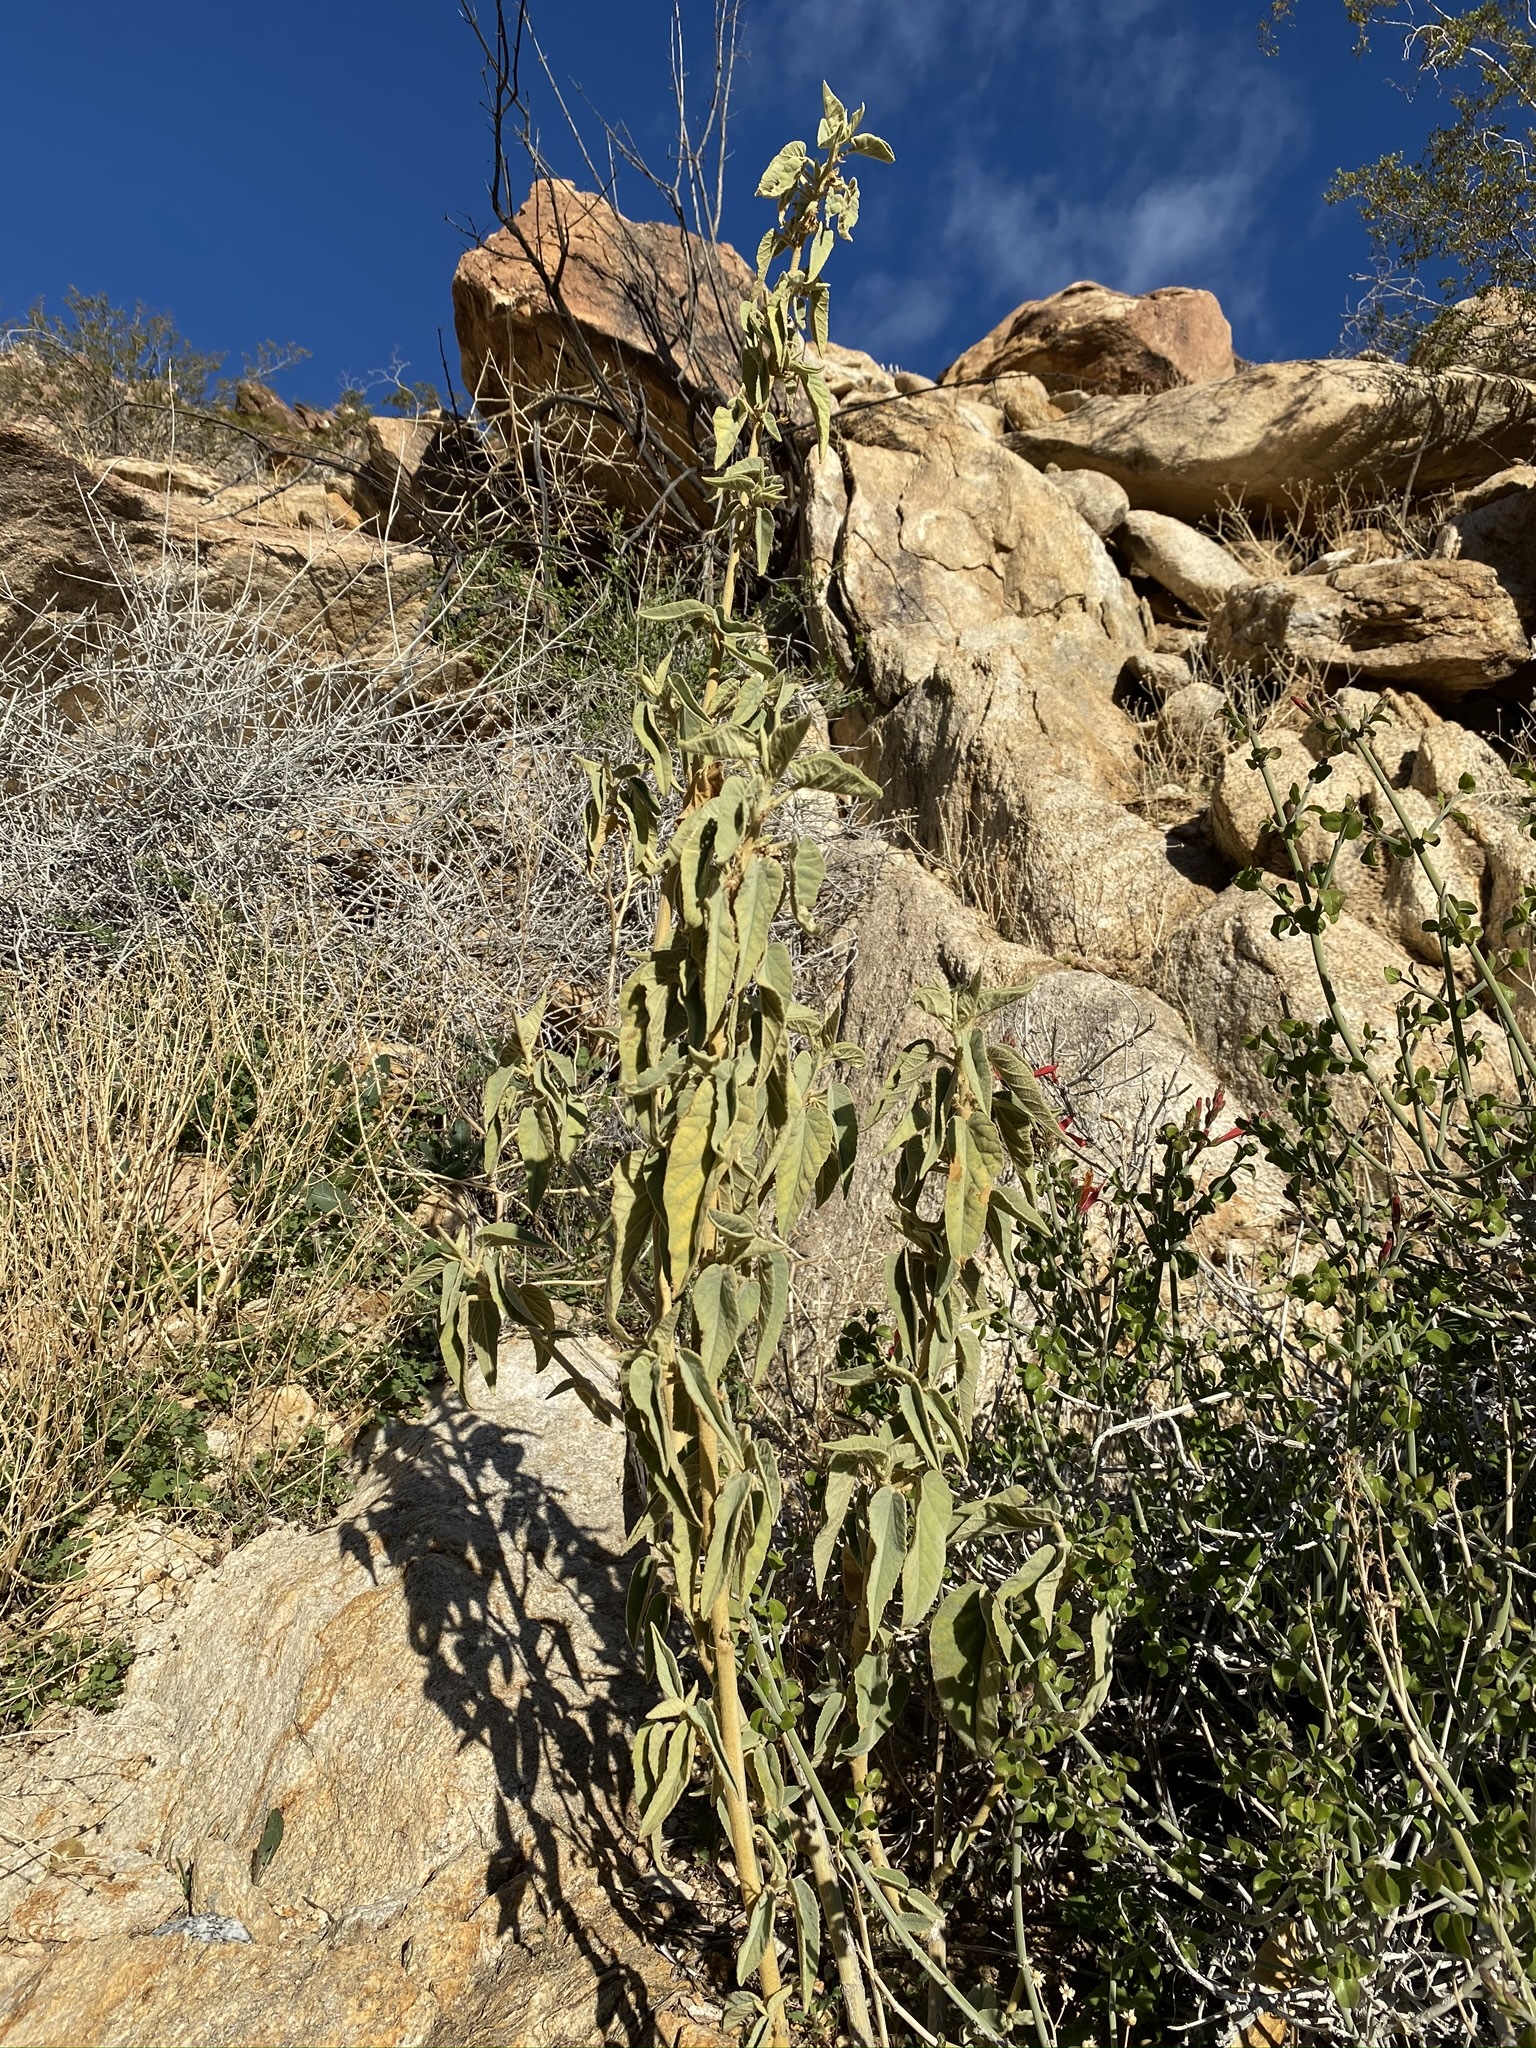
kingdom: Plantae
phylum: Tracheophyta
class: Magnoliopsida
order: Malvales
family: Malvaceae
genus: Horsfordia
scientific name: Horsfordia newberryi
